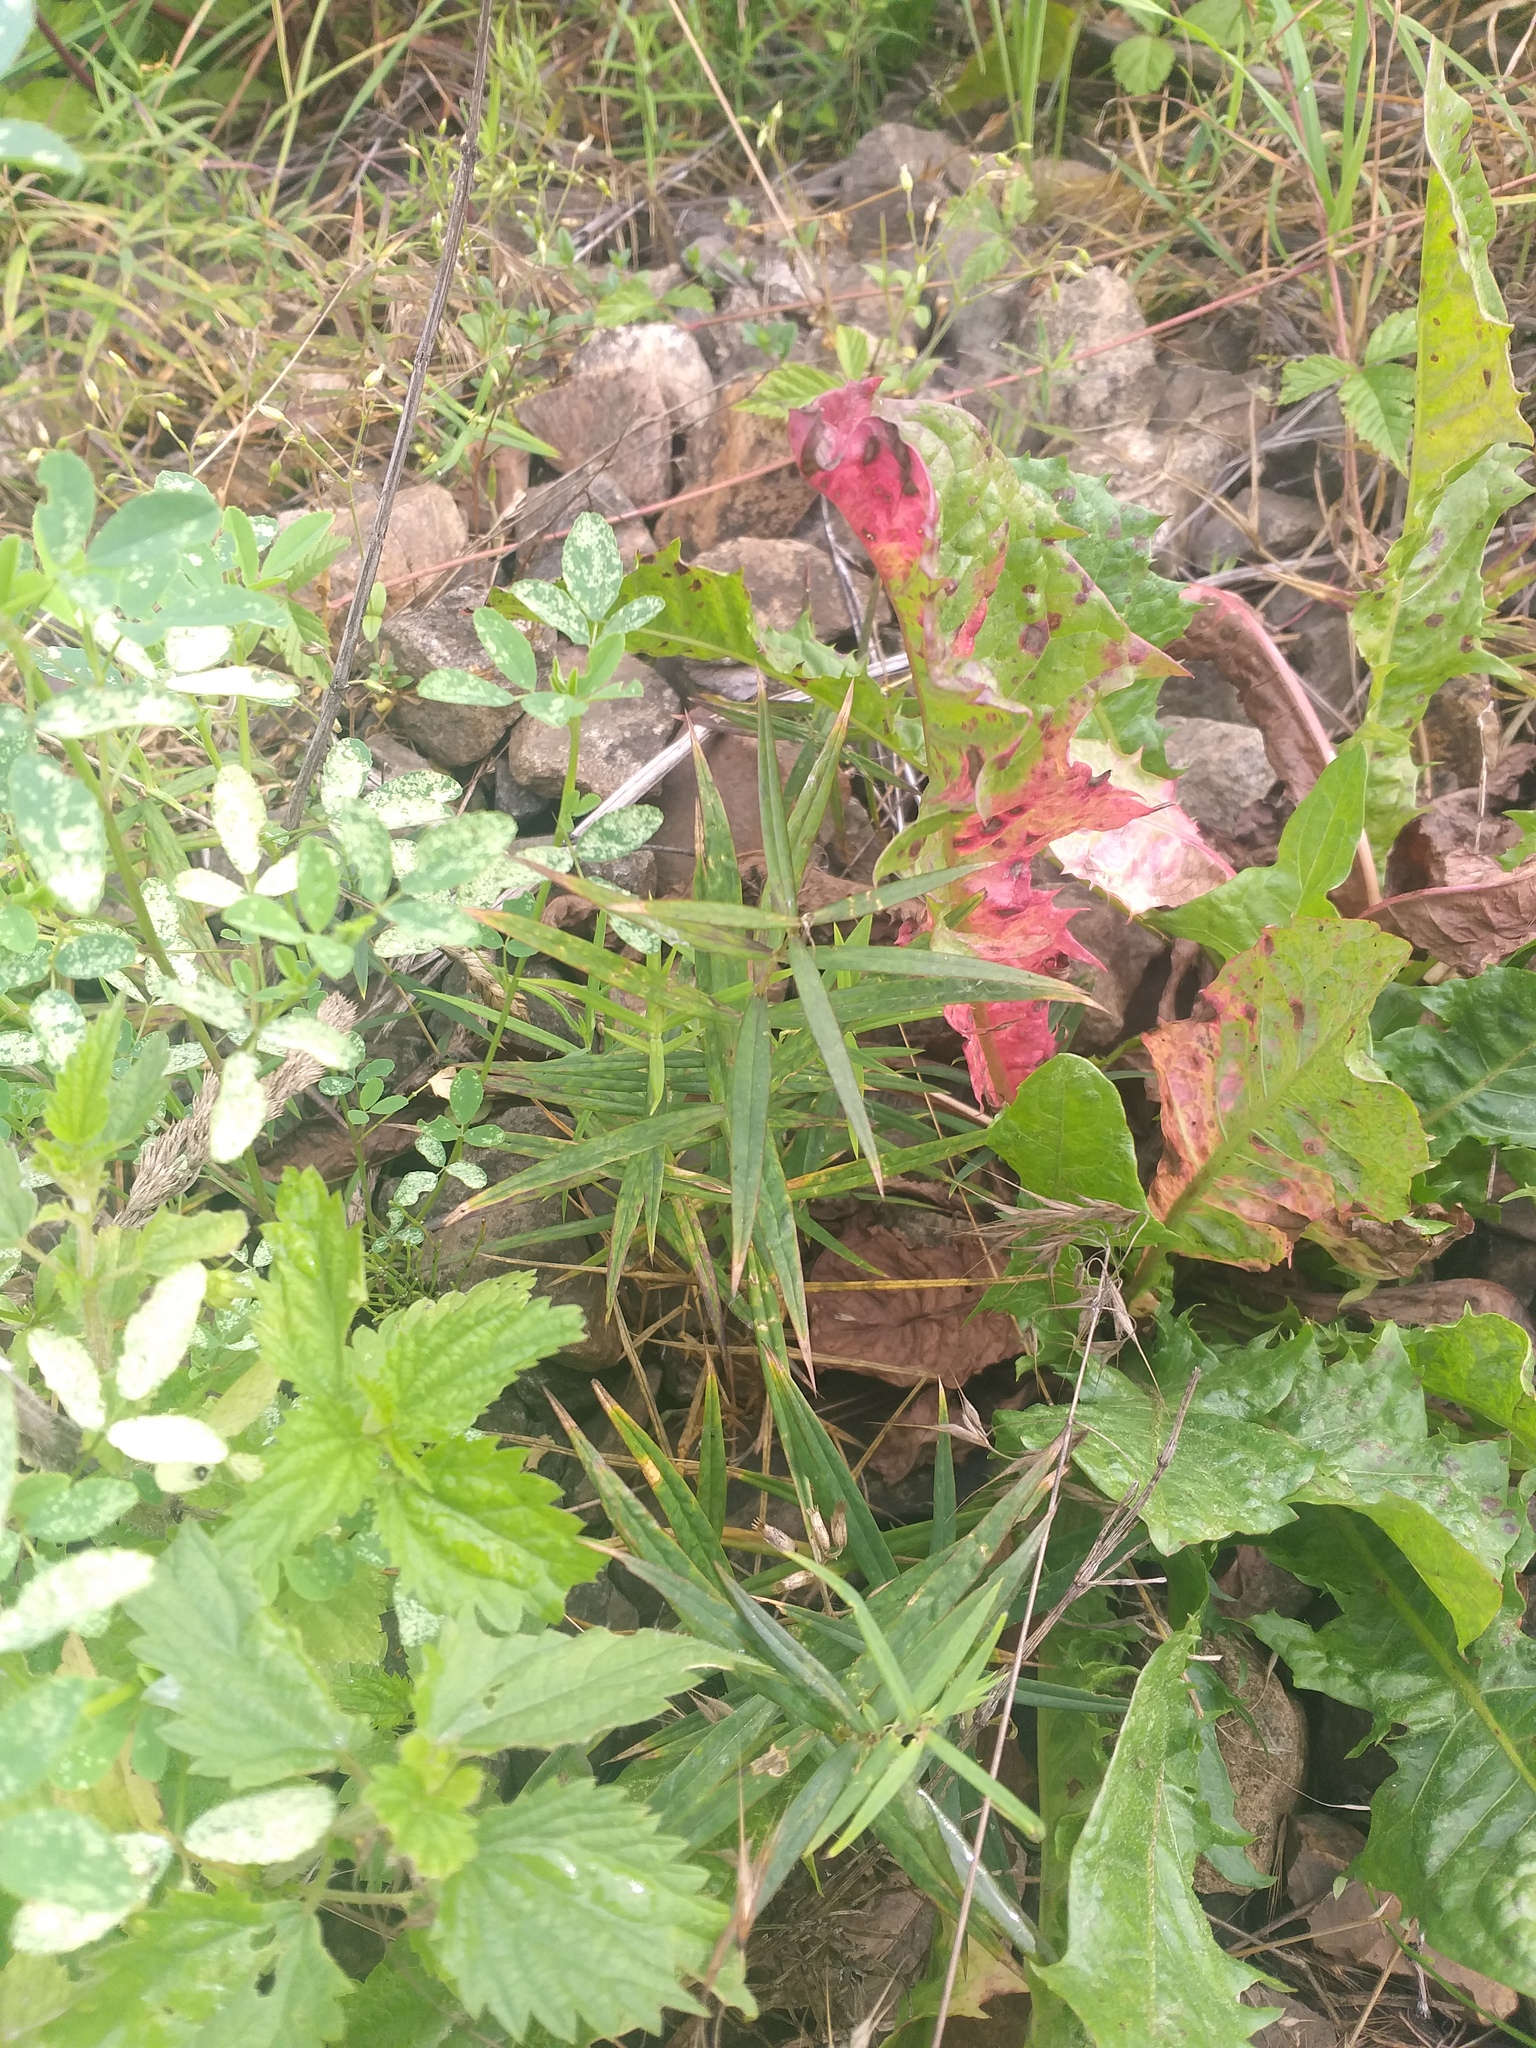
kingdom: Plantae
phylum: Tracheophyta
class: Magnoliopsida
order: Caryophyllales
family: Caryophyllaceae
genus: Rabelera
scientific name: Rabelera holostea
